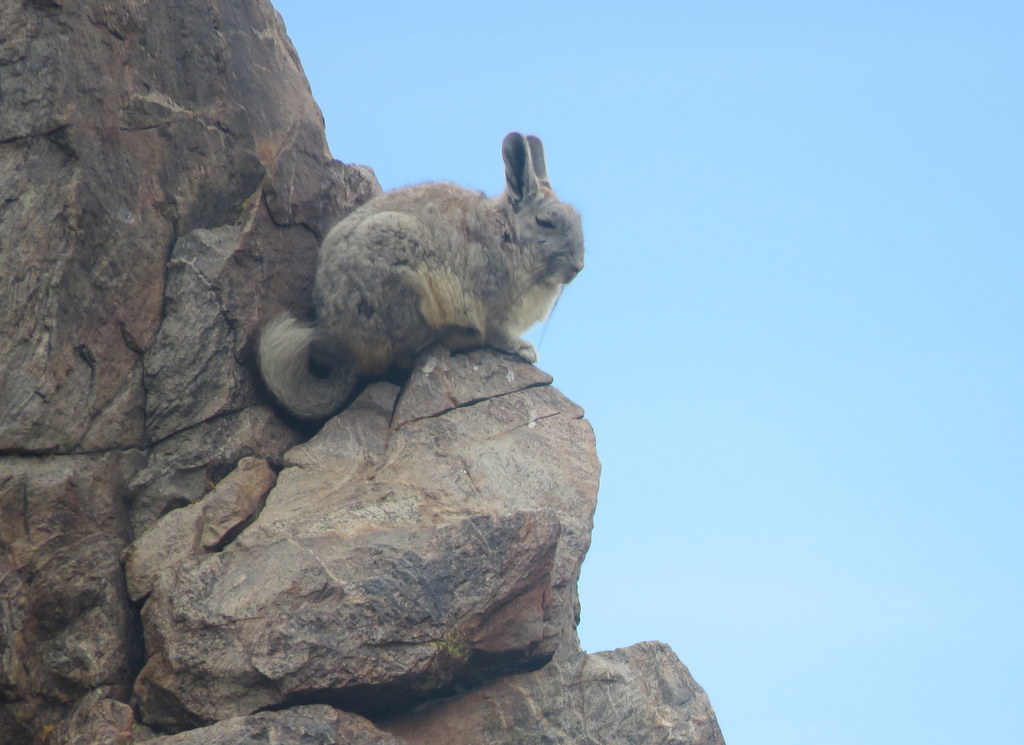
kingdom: Animalia
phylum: Chordata
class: Mammalia
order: Rodentia
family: Chinchillidae
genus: Lagidium
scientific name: Lagidium viscacia
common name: Southern viscacha
